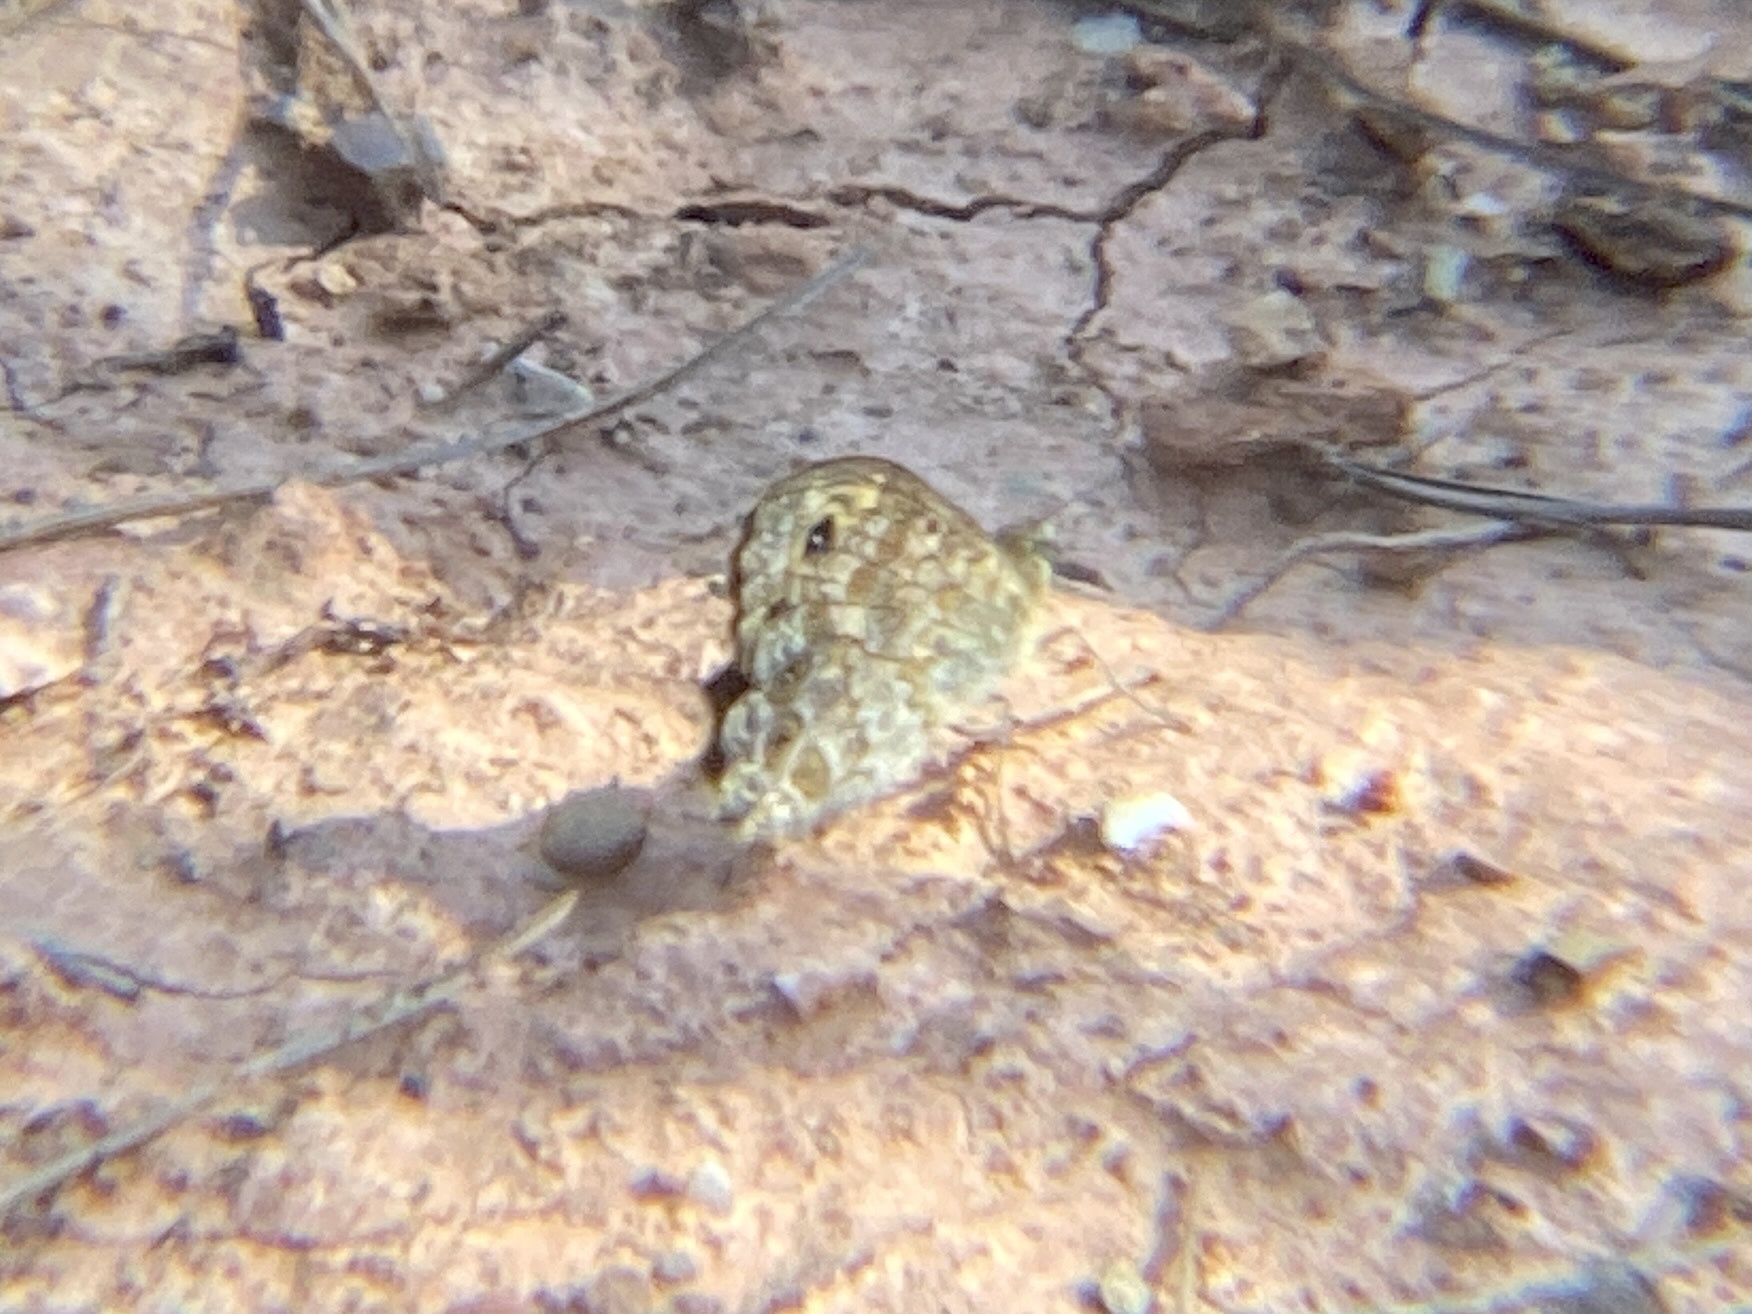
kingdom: Animalia
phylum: Arthropoda
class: Insecta
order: Lepidoptera
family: Nymphalidae
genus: Pararge
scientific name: Pararge Lasiommata megera
